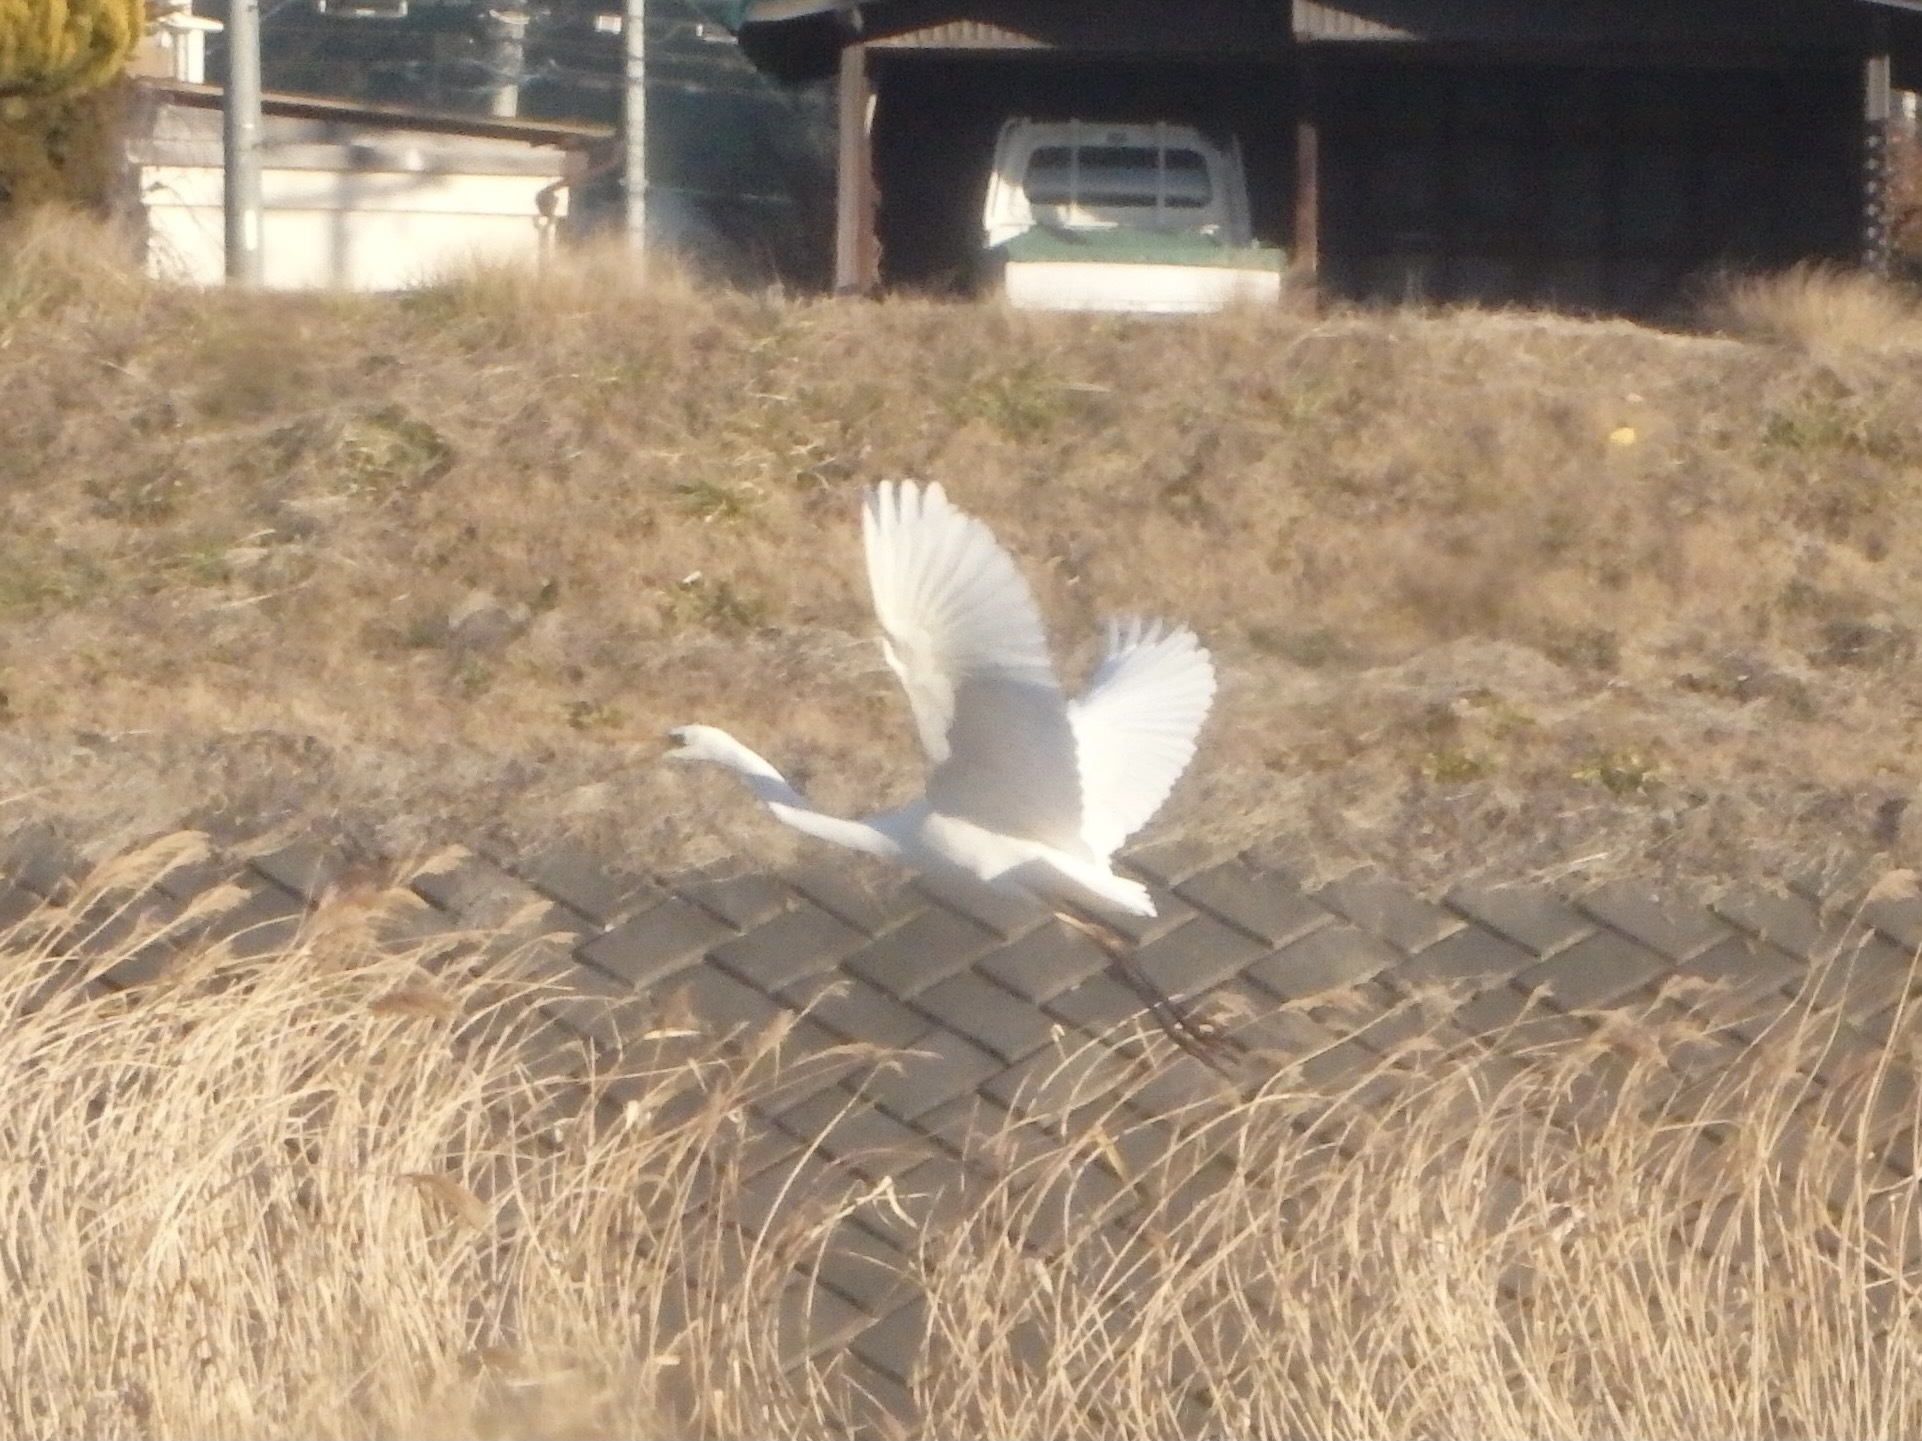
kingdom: Animalia
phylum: Chordata
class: Aves
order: Pelecaniformes
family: Ardeidae
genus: Ardea
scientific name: Ardea alba
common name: Great egret
